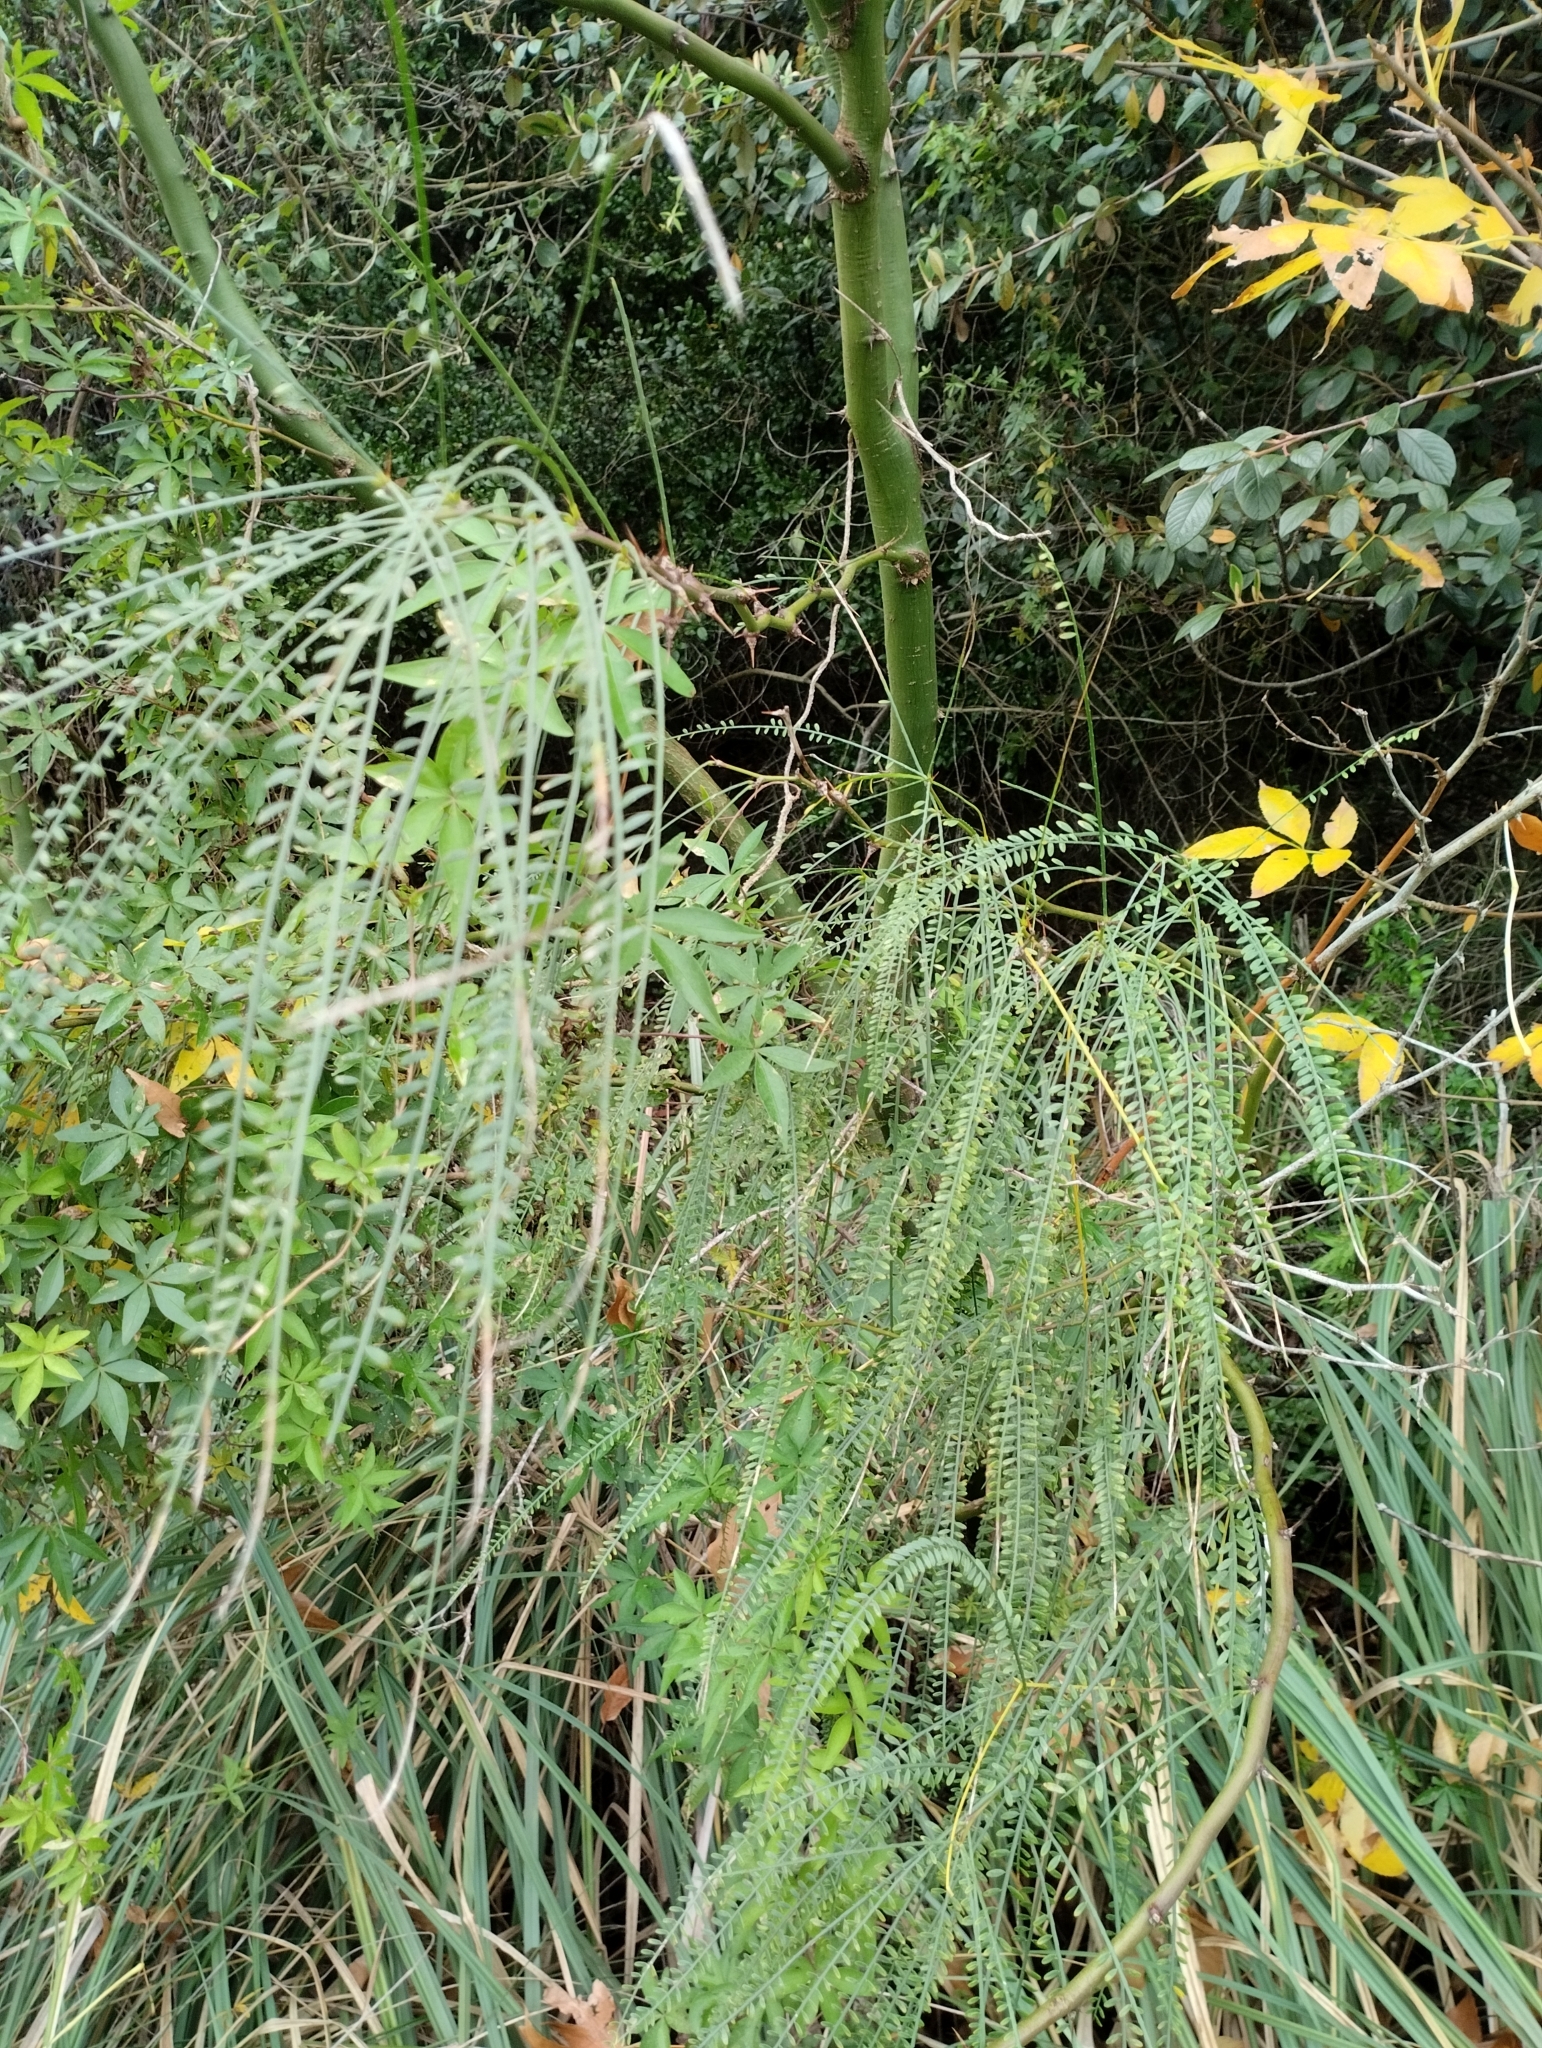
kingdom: Plantae
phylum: Tracheophyta
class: Magnoliopsida
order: Fabales
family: Fabaceae
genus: Parkinsonia
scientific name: Parkinsonia aculeata
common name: Jerusalem thorn
